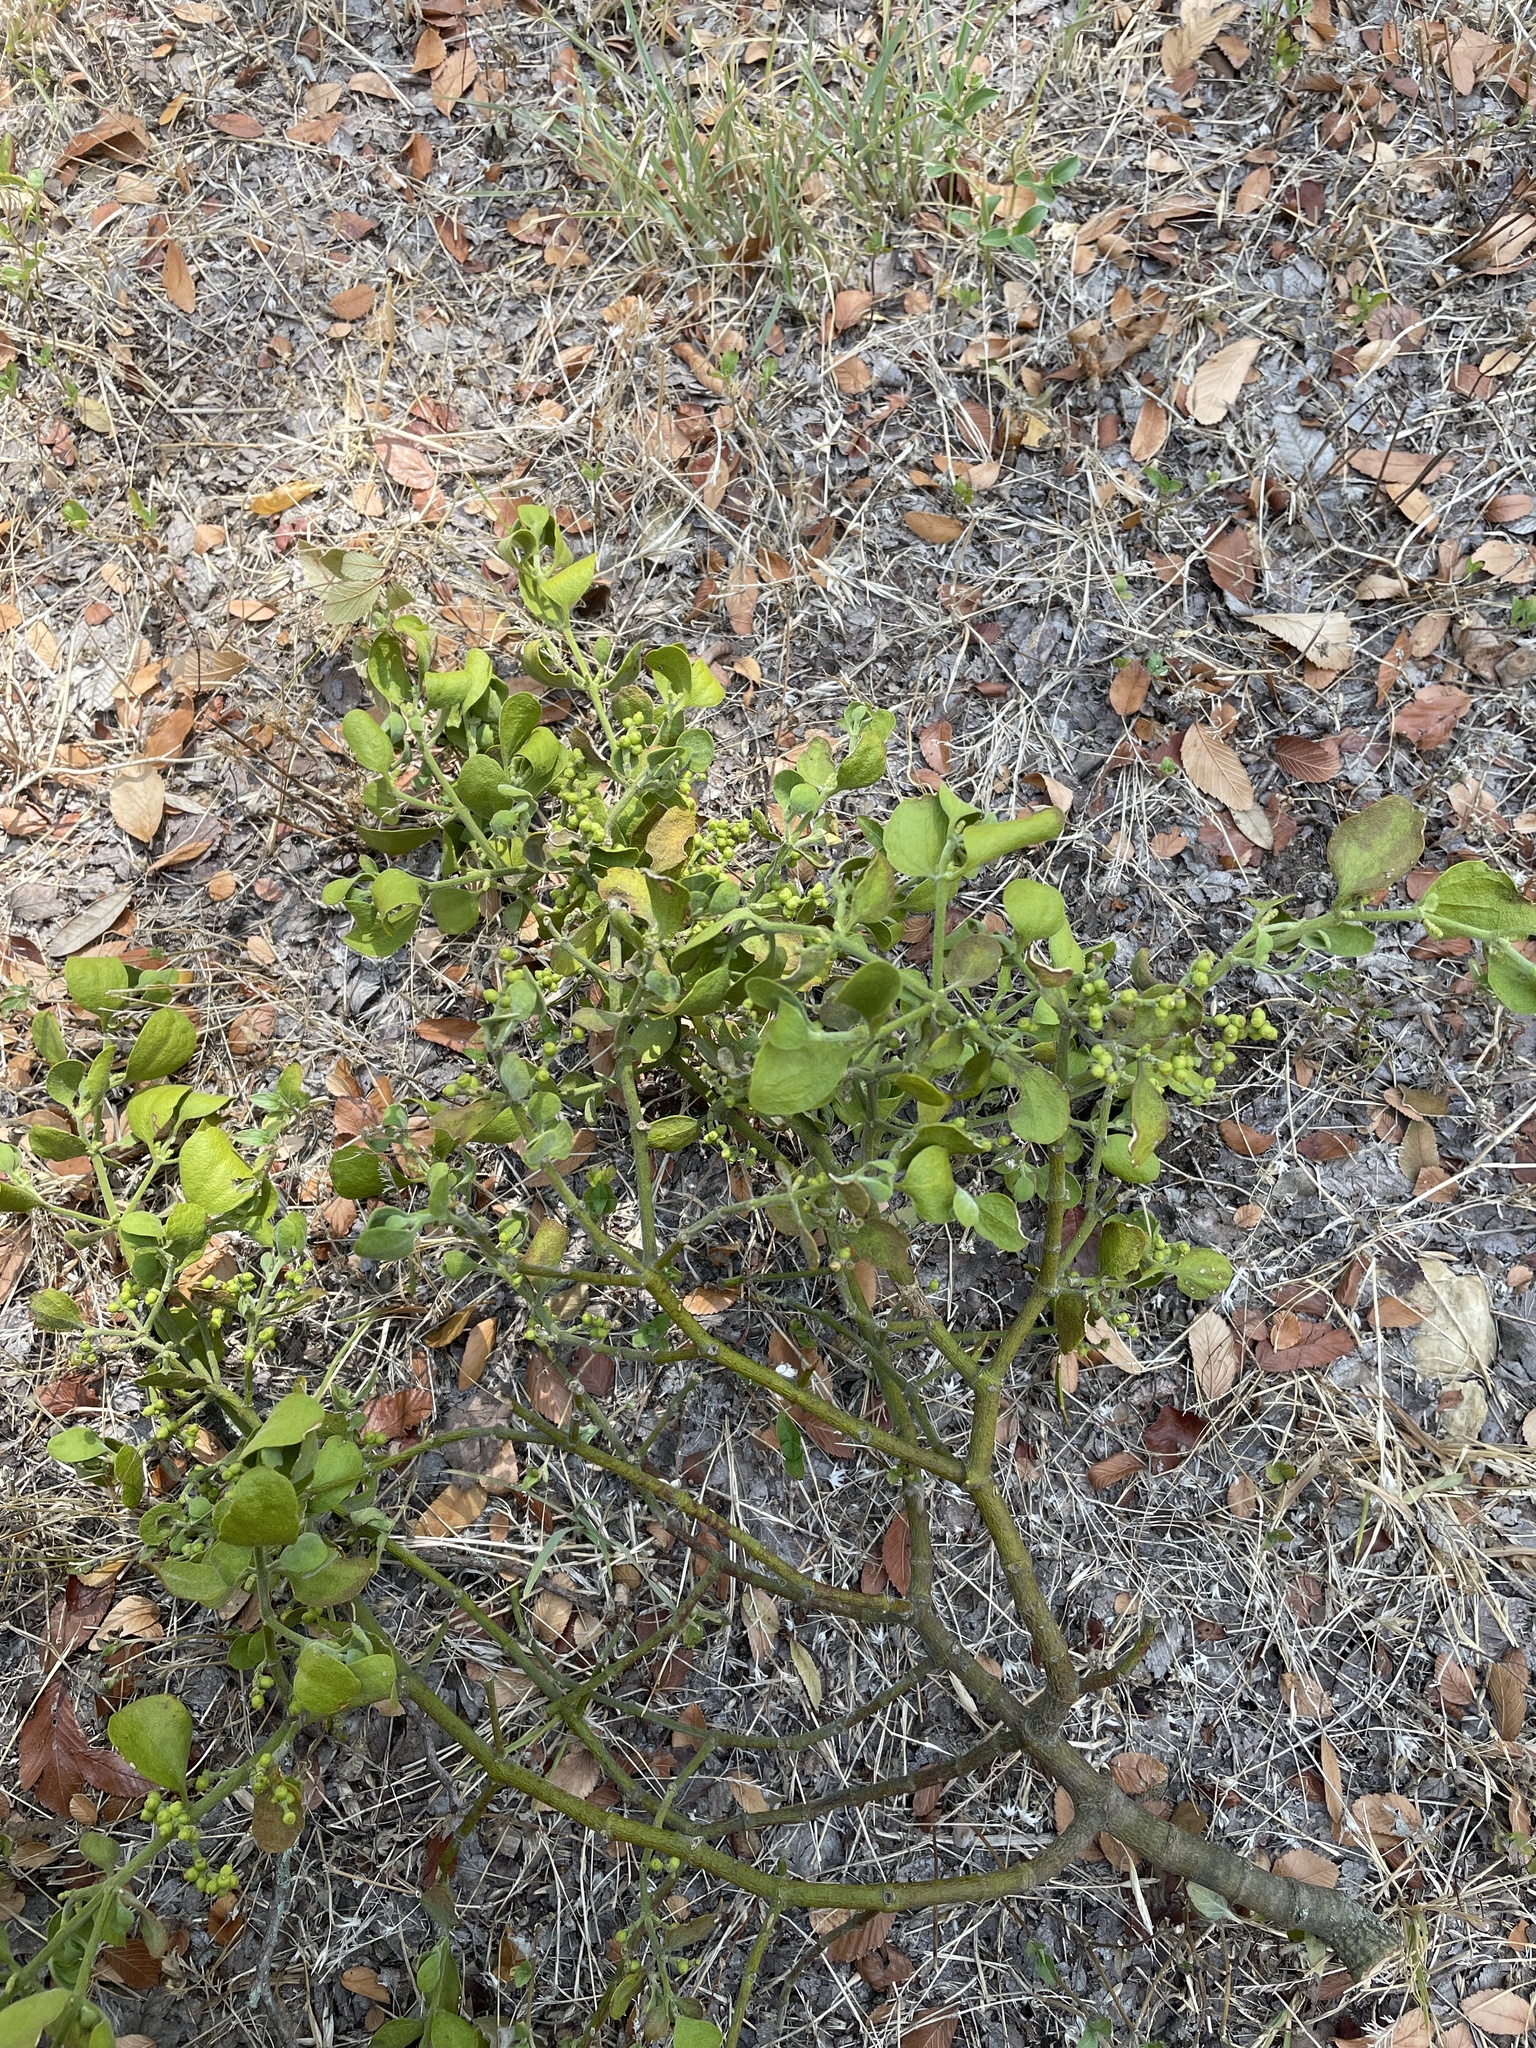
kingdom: Plantae
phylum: Tracheophyta
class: Magnoliopsida
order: Santalales
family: Viscaceae
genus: Phoradendron
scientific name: Phoradendron leucarpum
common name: Pacific mistletoe
